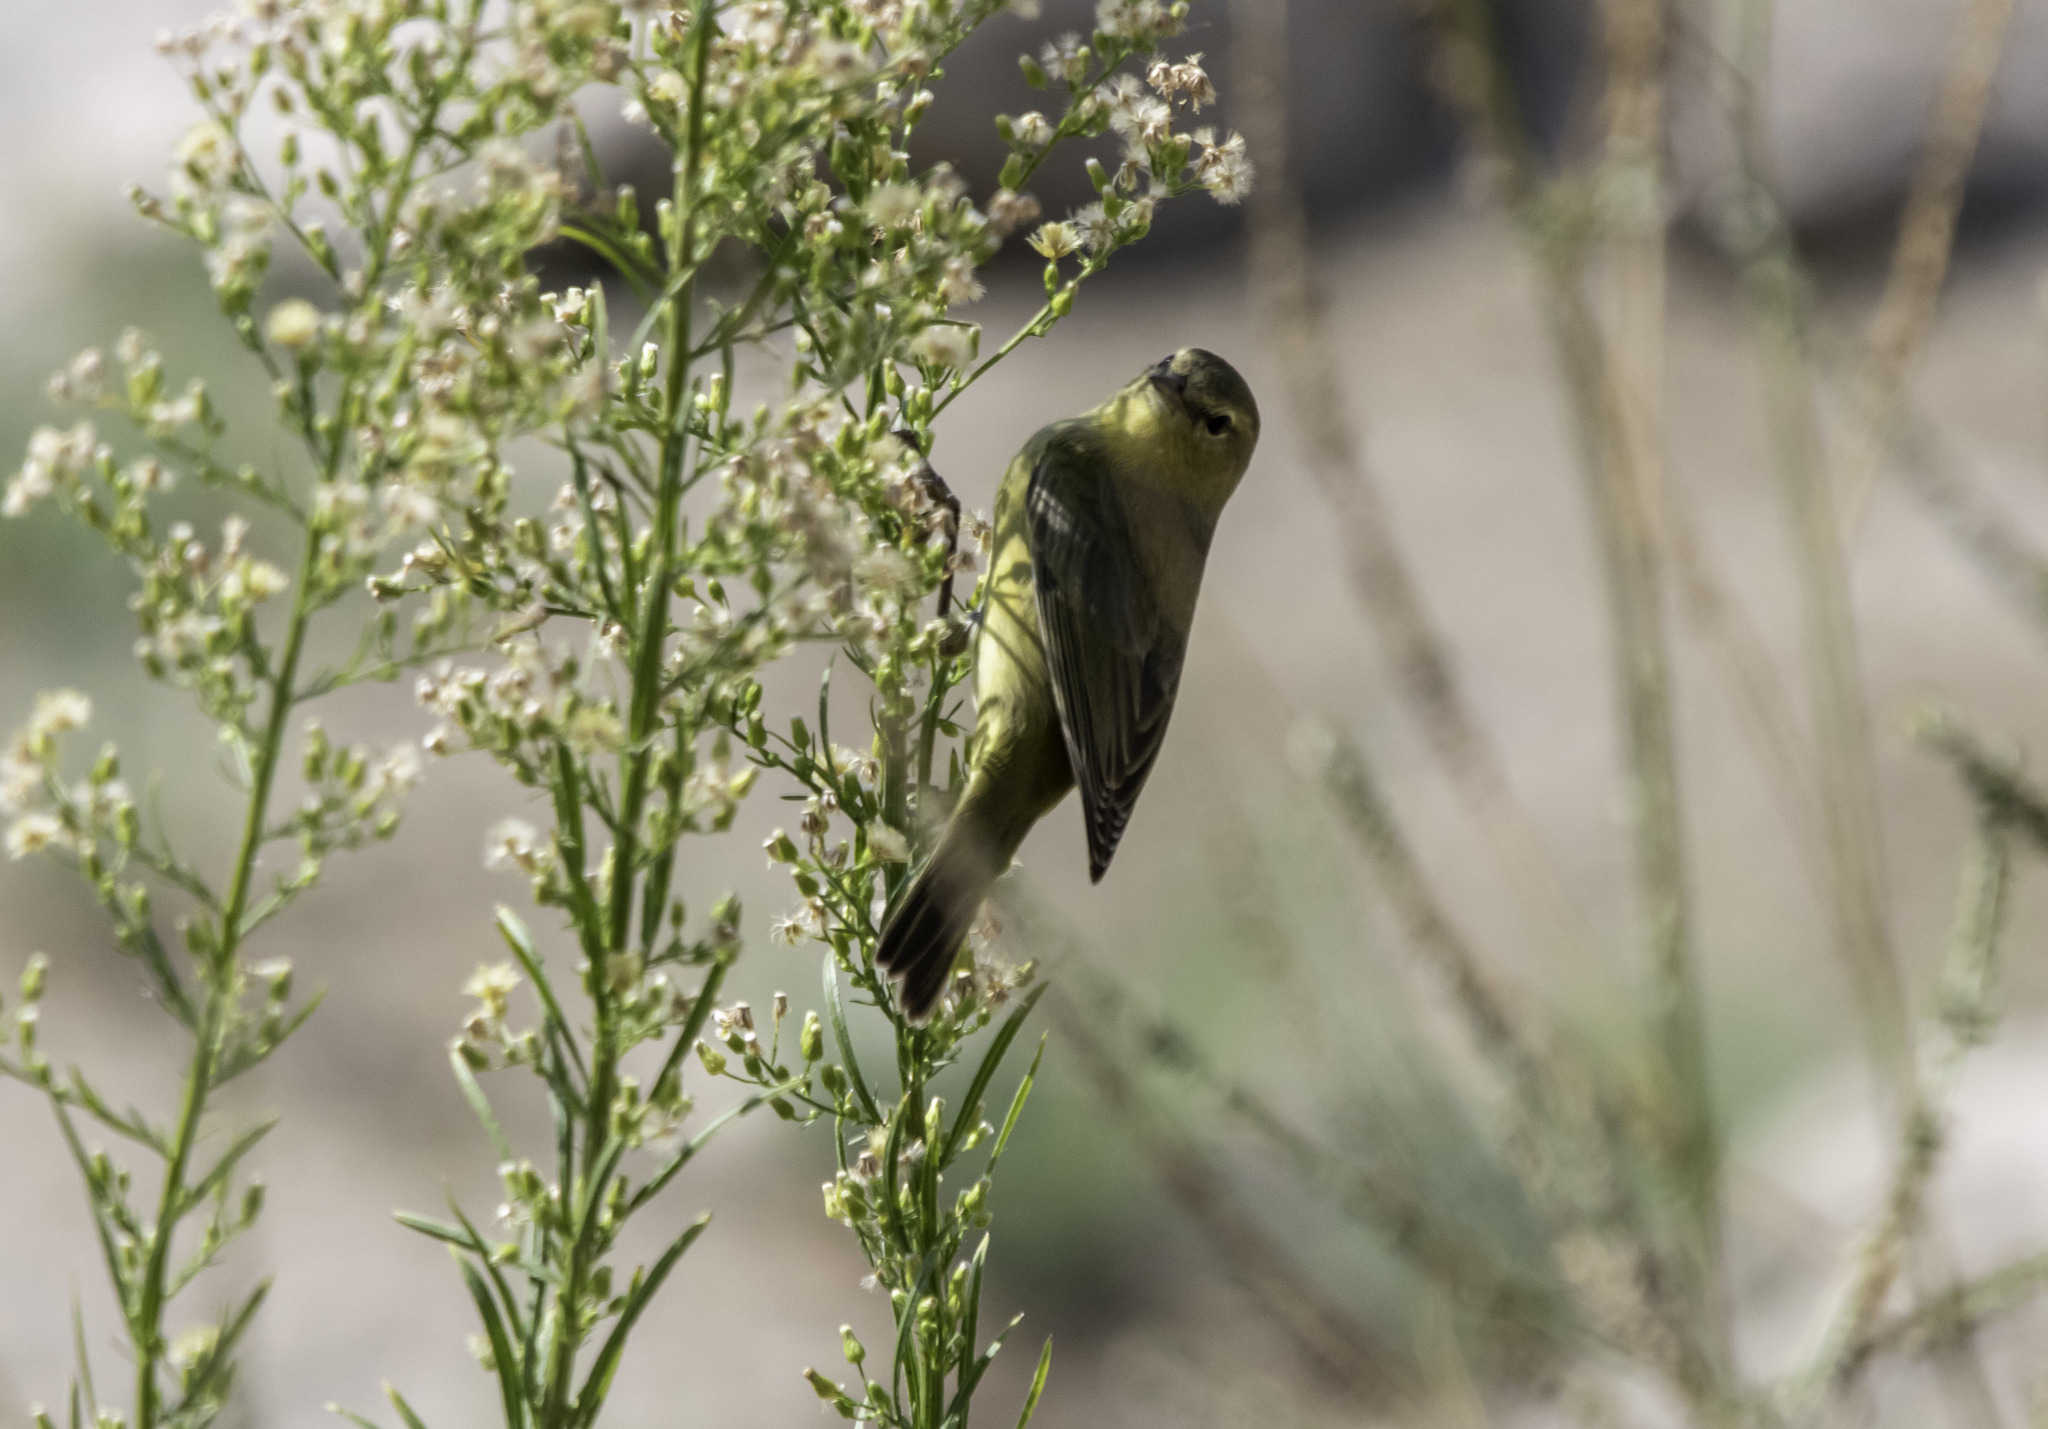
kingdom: Animalia
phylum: Chordata
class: Aves
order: Passeriformes
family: Parulidae
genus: Leiothlypis
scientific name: Leiothlypis celata
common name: Orange-crowned warbler
